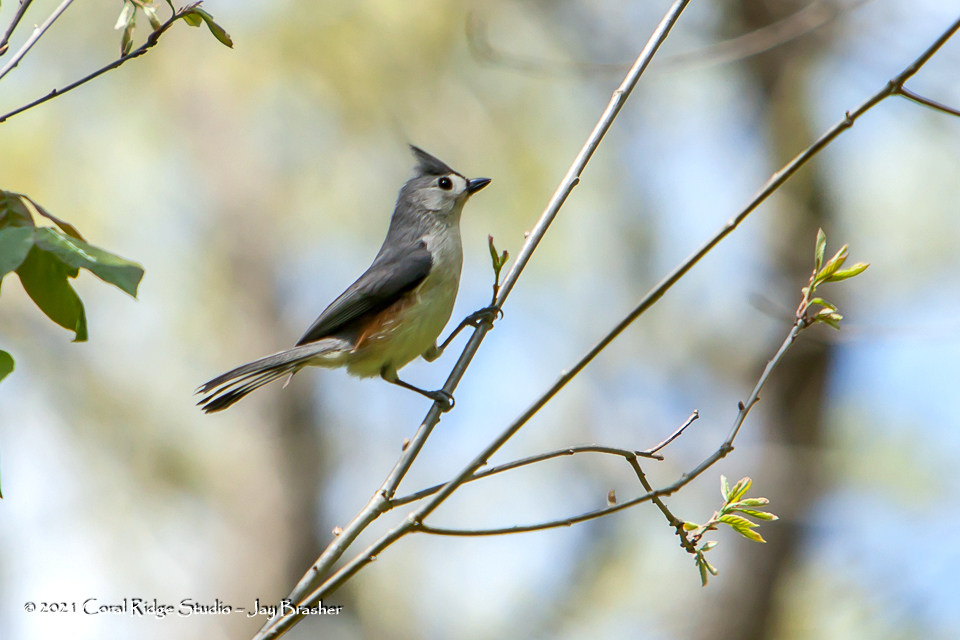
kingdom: Animalia
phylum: Chordata
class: Aves
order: Passeriformes
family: Paridae
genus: Baeolophus
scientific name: Baeolophus bicolor
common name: Tufted titmouse
